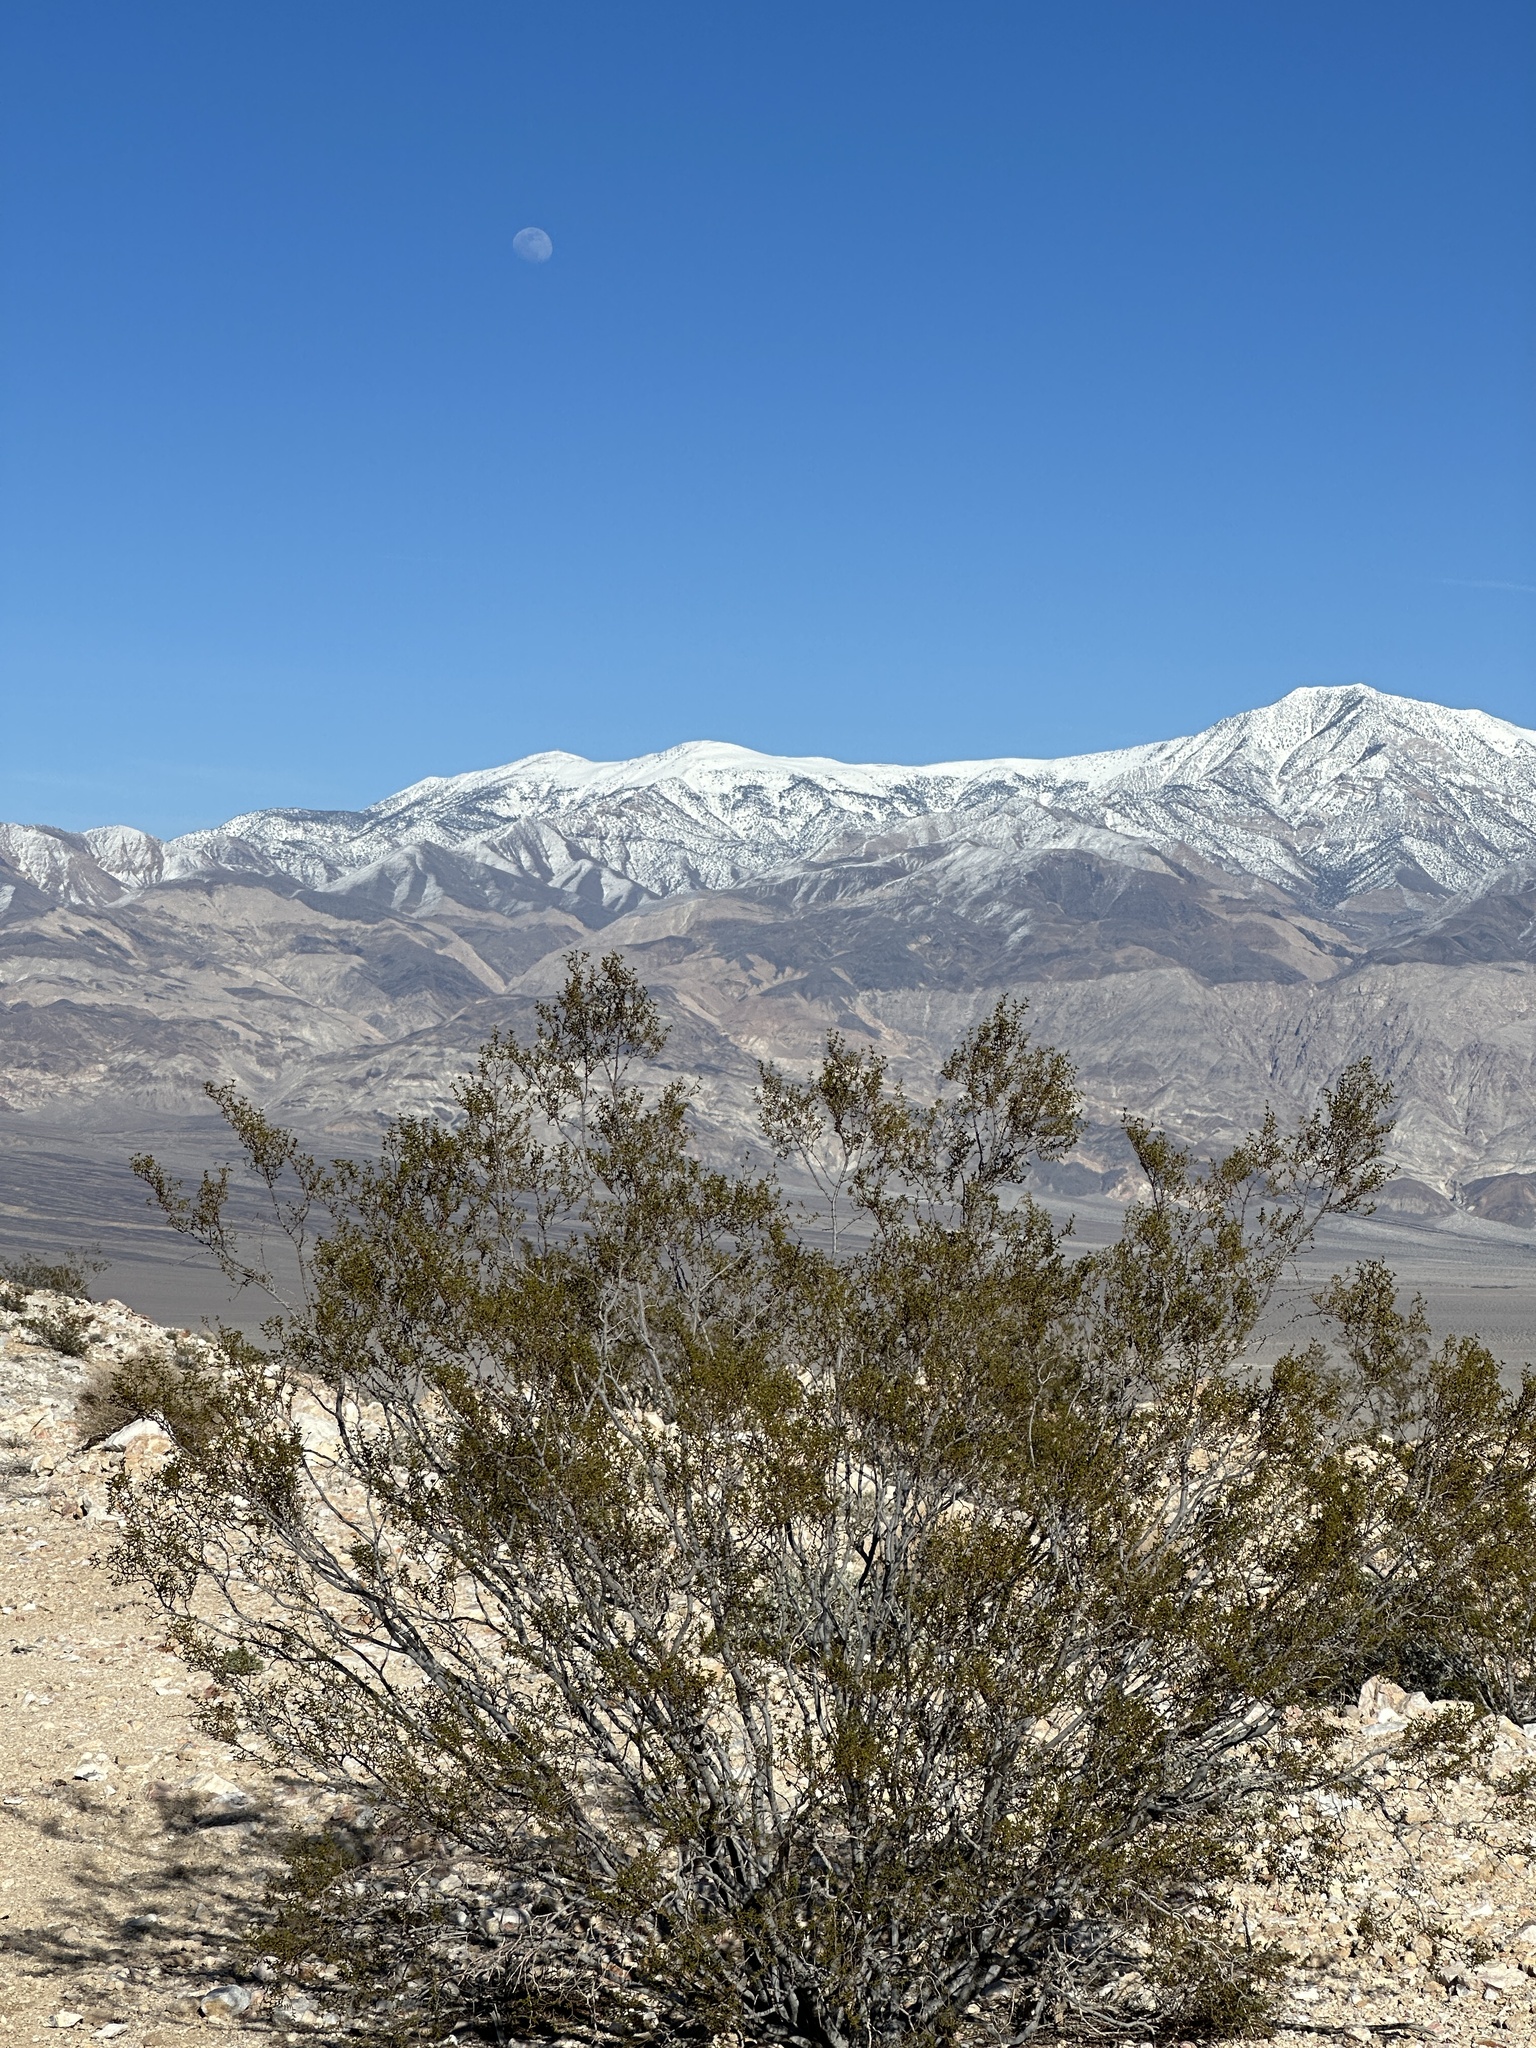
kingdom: Plantae
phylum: Tracheophyta
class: Magnoliopsida
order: Zygophyllales
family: Zygophyllaceae
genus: Larrea
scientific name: Larrea tridentata
